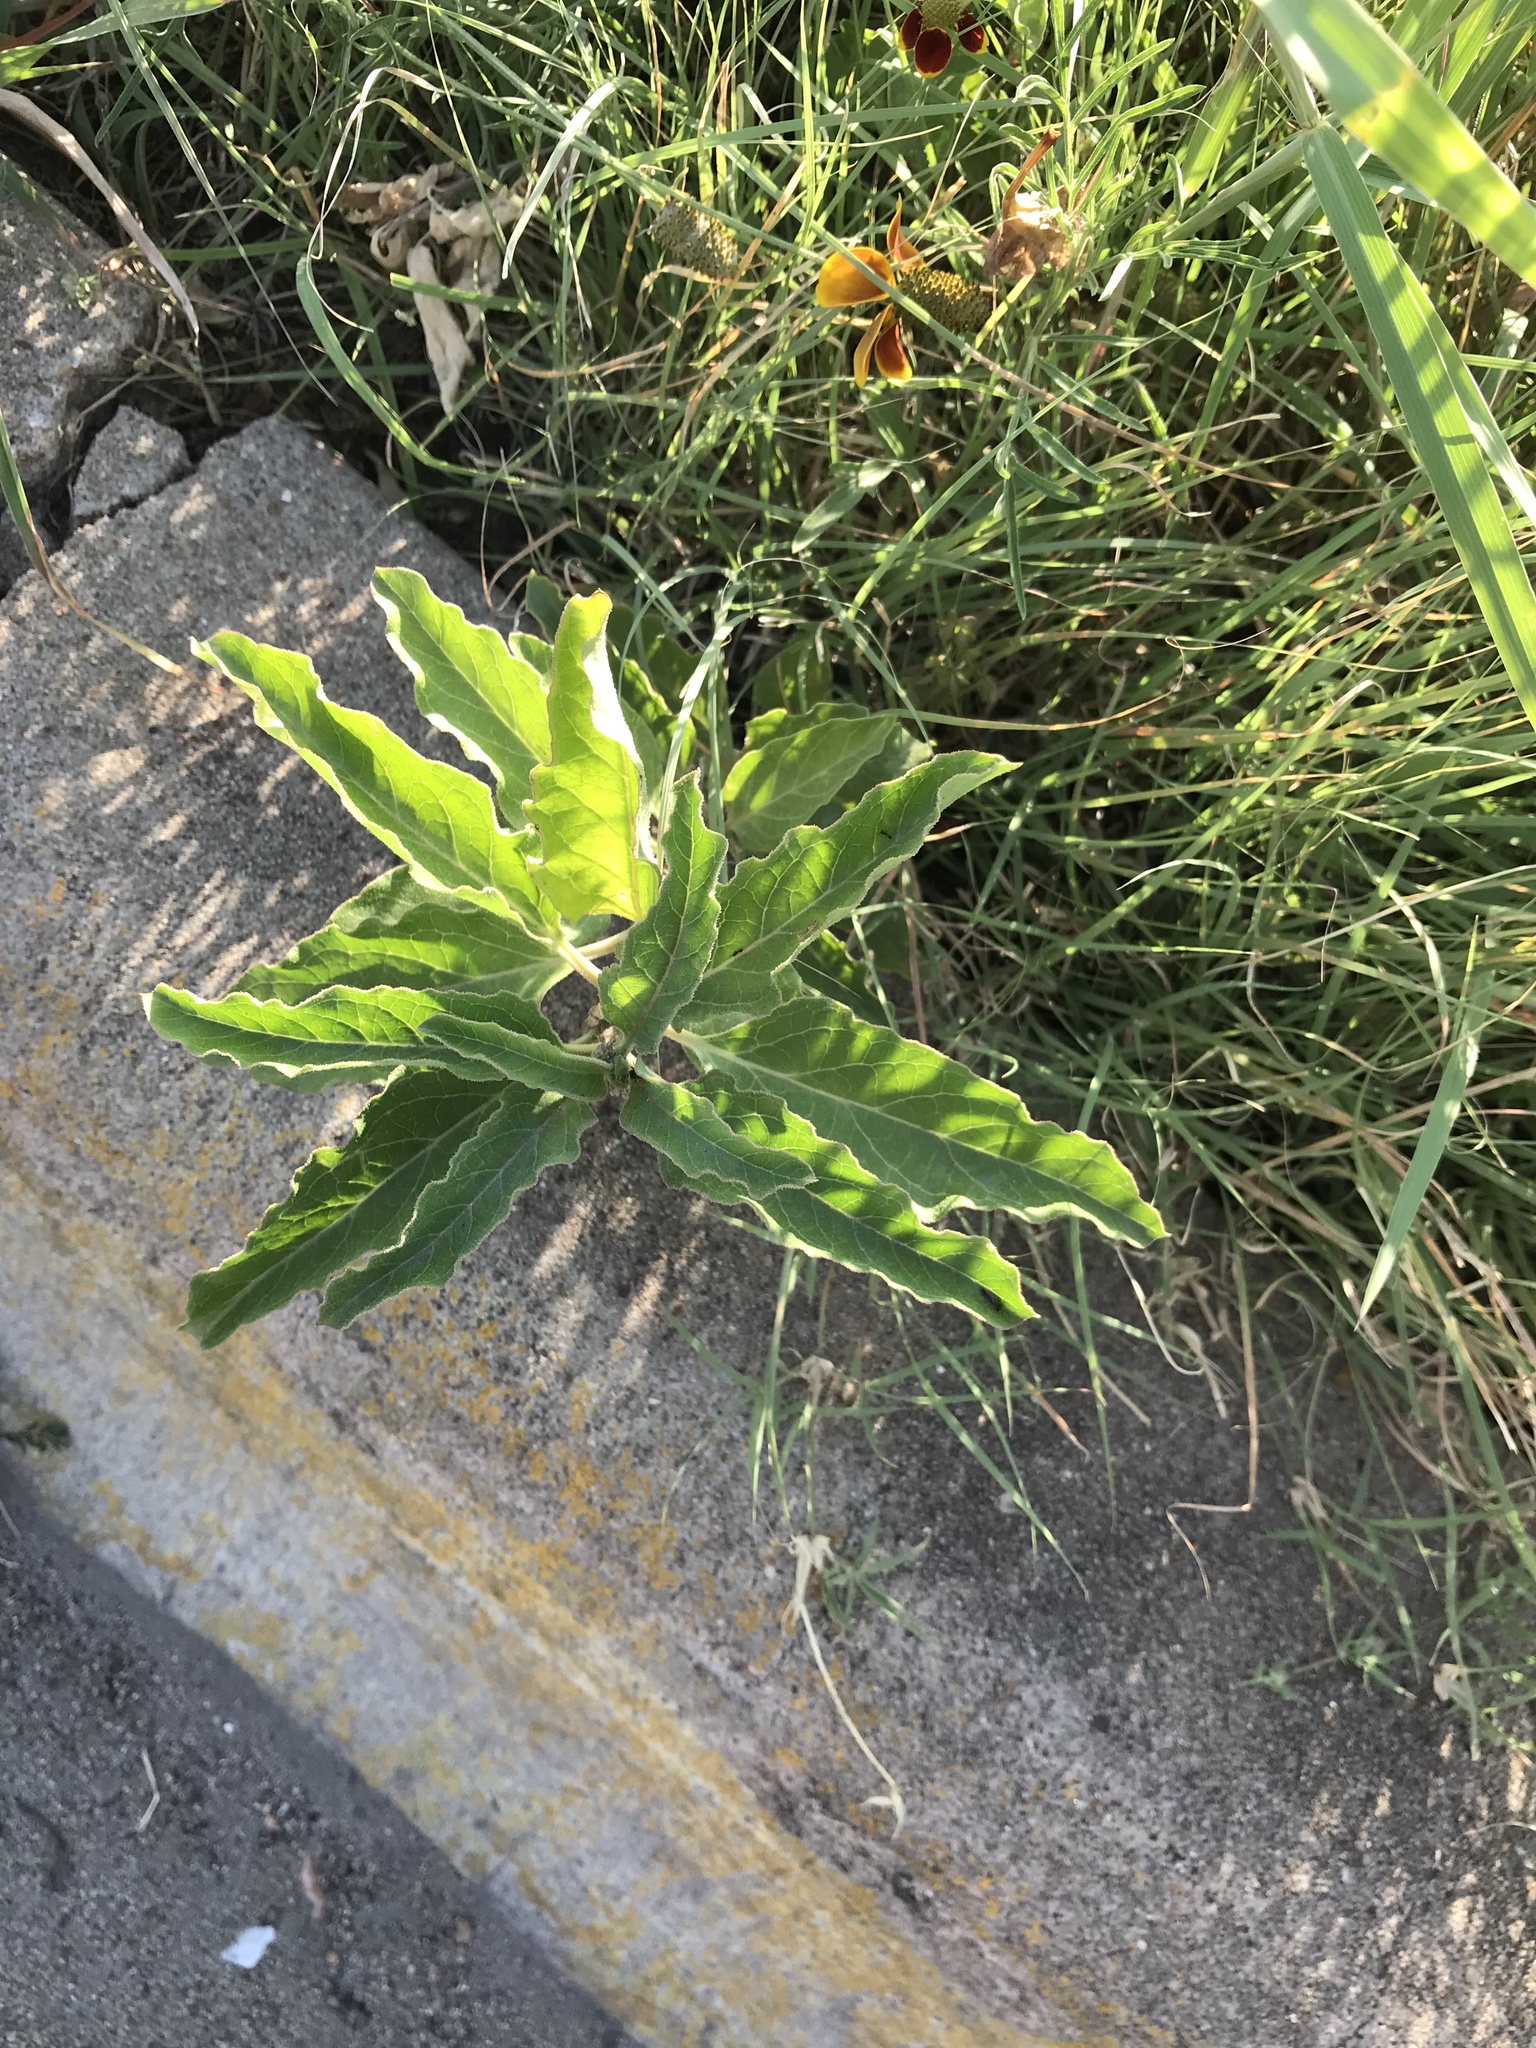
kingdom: Plantae
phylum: Tracheophyta
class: Magnoliopsida
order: Gentianales
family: Apocynaceae
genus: Asclepias
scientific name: Asclepias oenotheroides
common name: Zizotes milkweed
